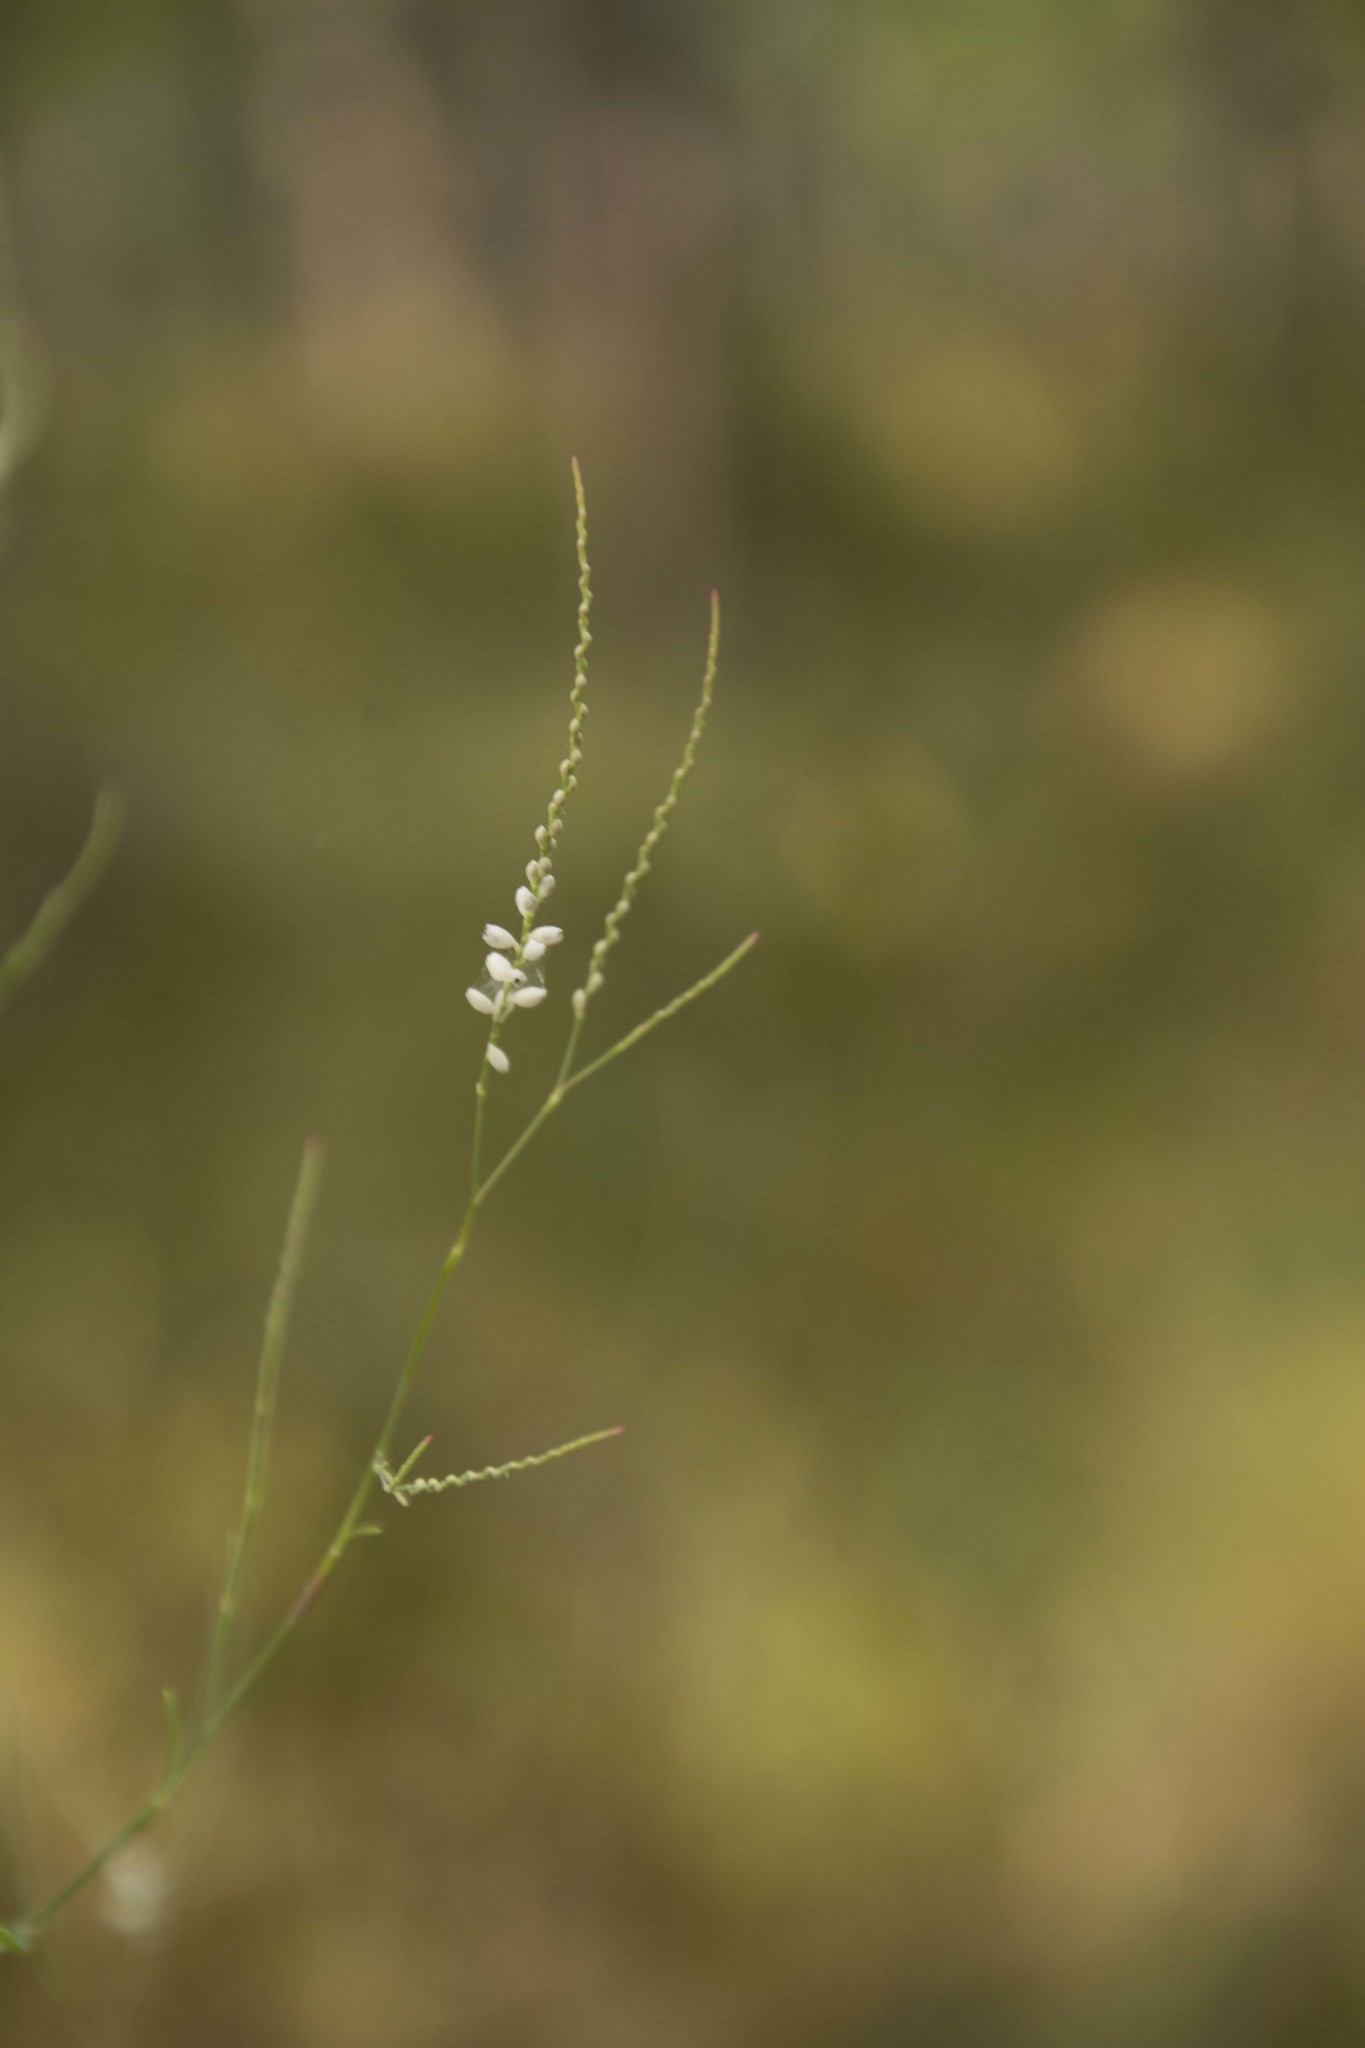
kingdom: Plantae
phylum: Tracheophyta
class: Magnoliopsida
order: Caryophyllales
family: Polygonaceae
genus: Polygonella
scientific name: Polygonella gracilis
